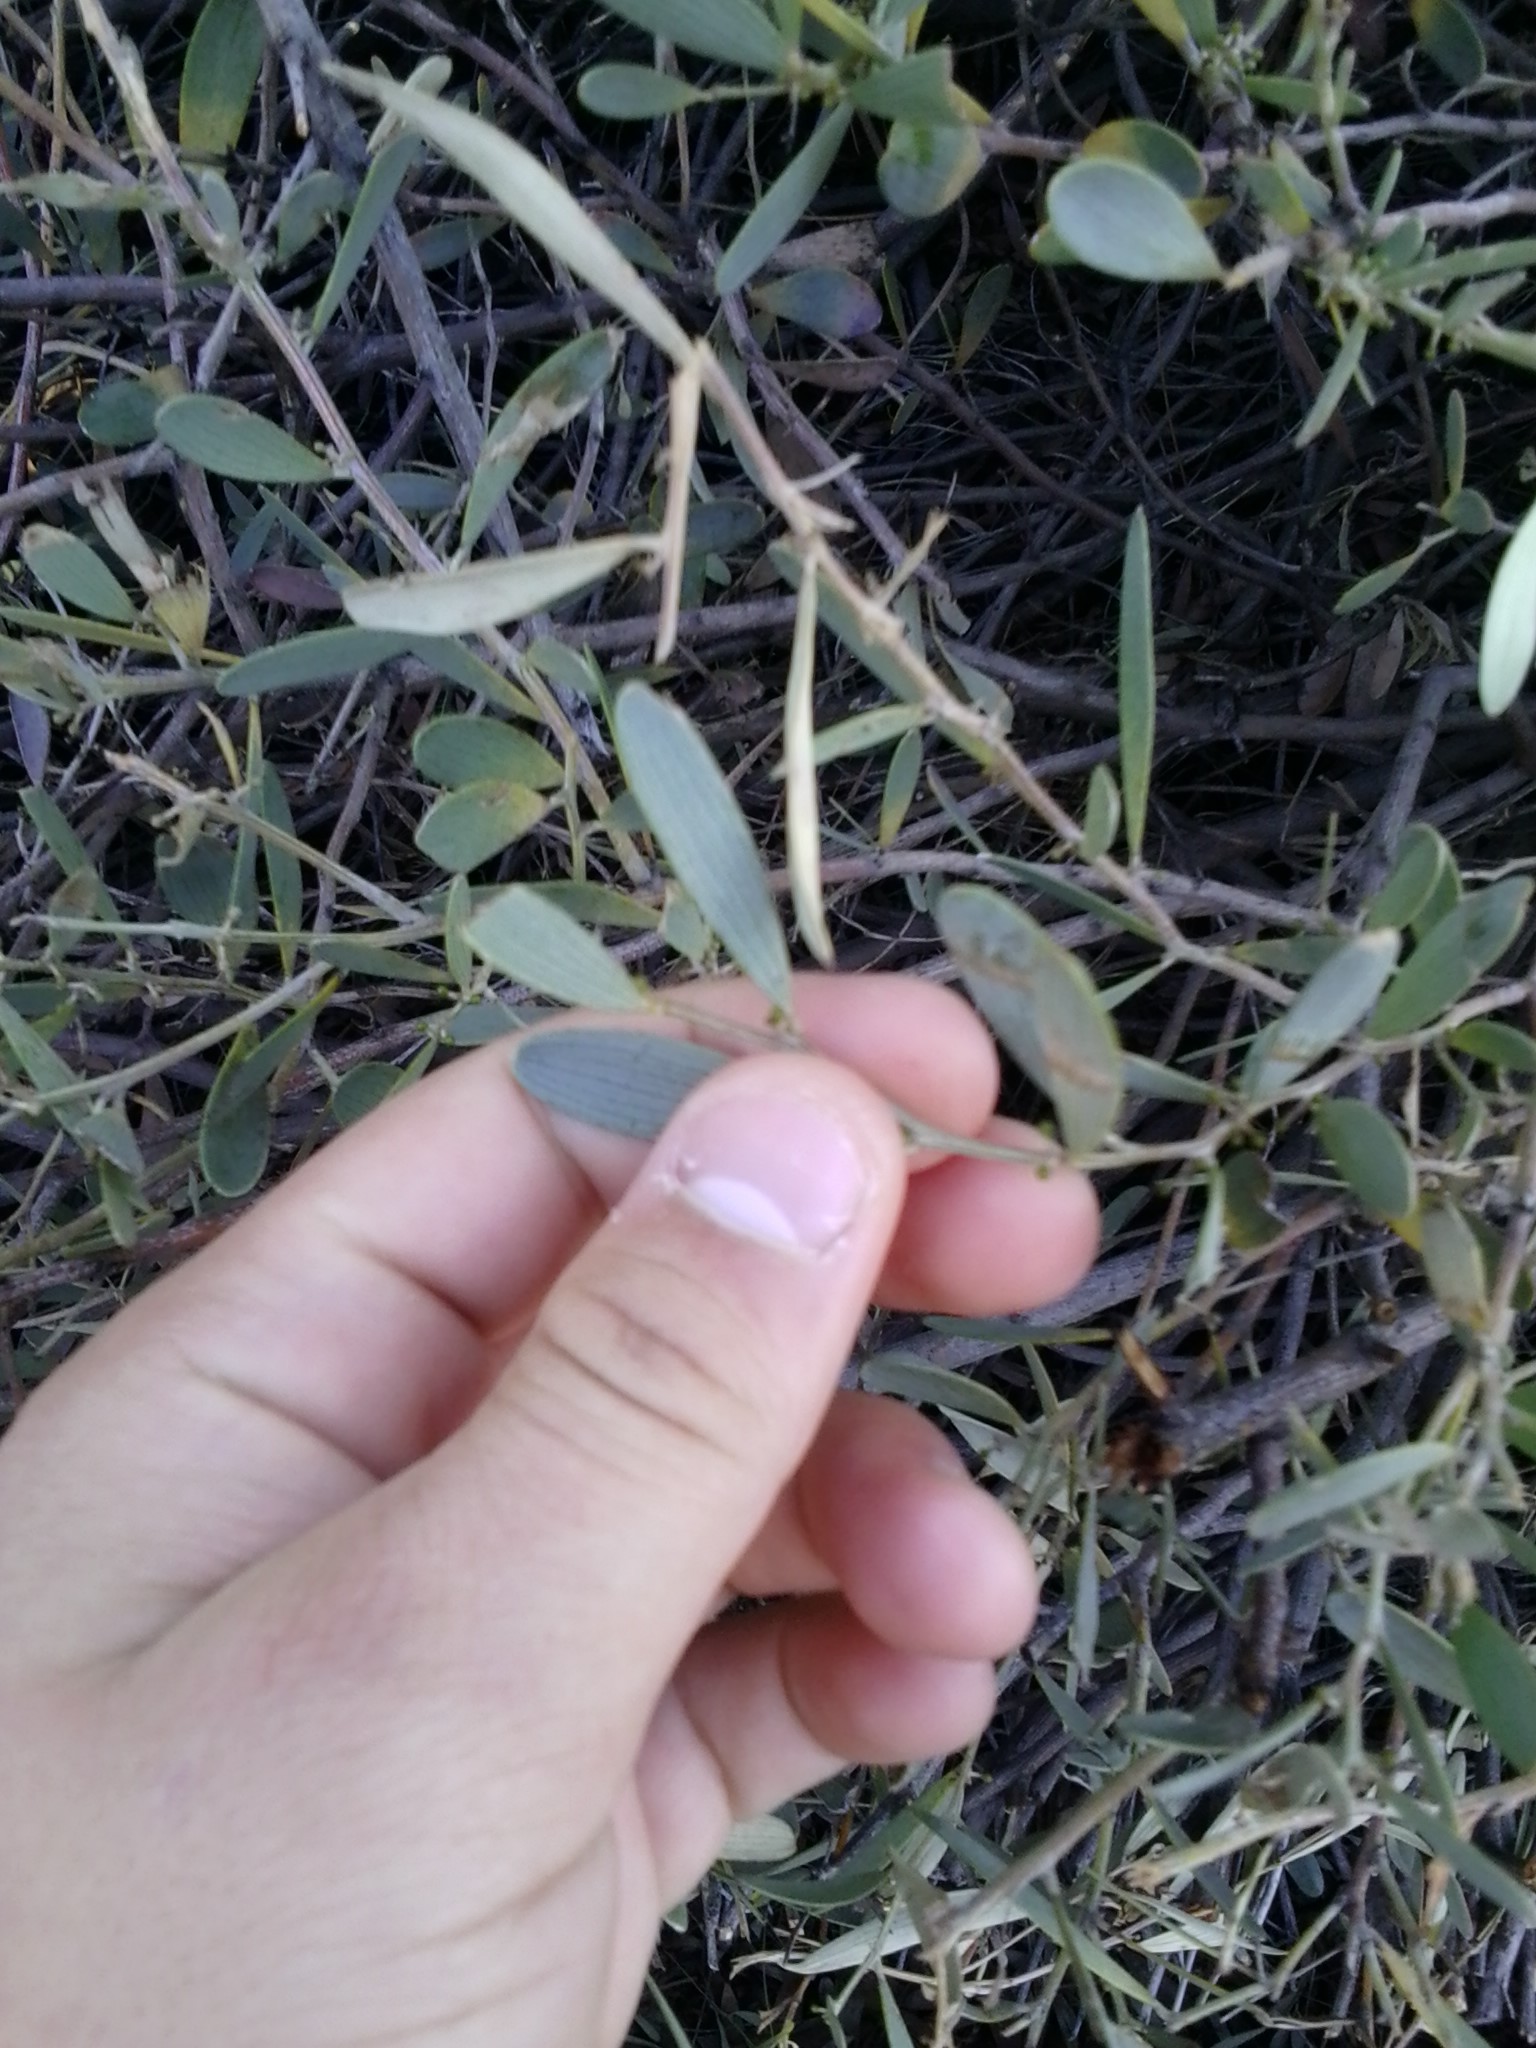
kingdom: Plantae
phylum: Tracheophyta
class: Magnoliopsida
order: Fabales
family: Fabaceae
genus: Acacia
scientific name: Acacia melanoxylon
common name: Blackwood
